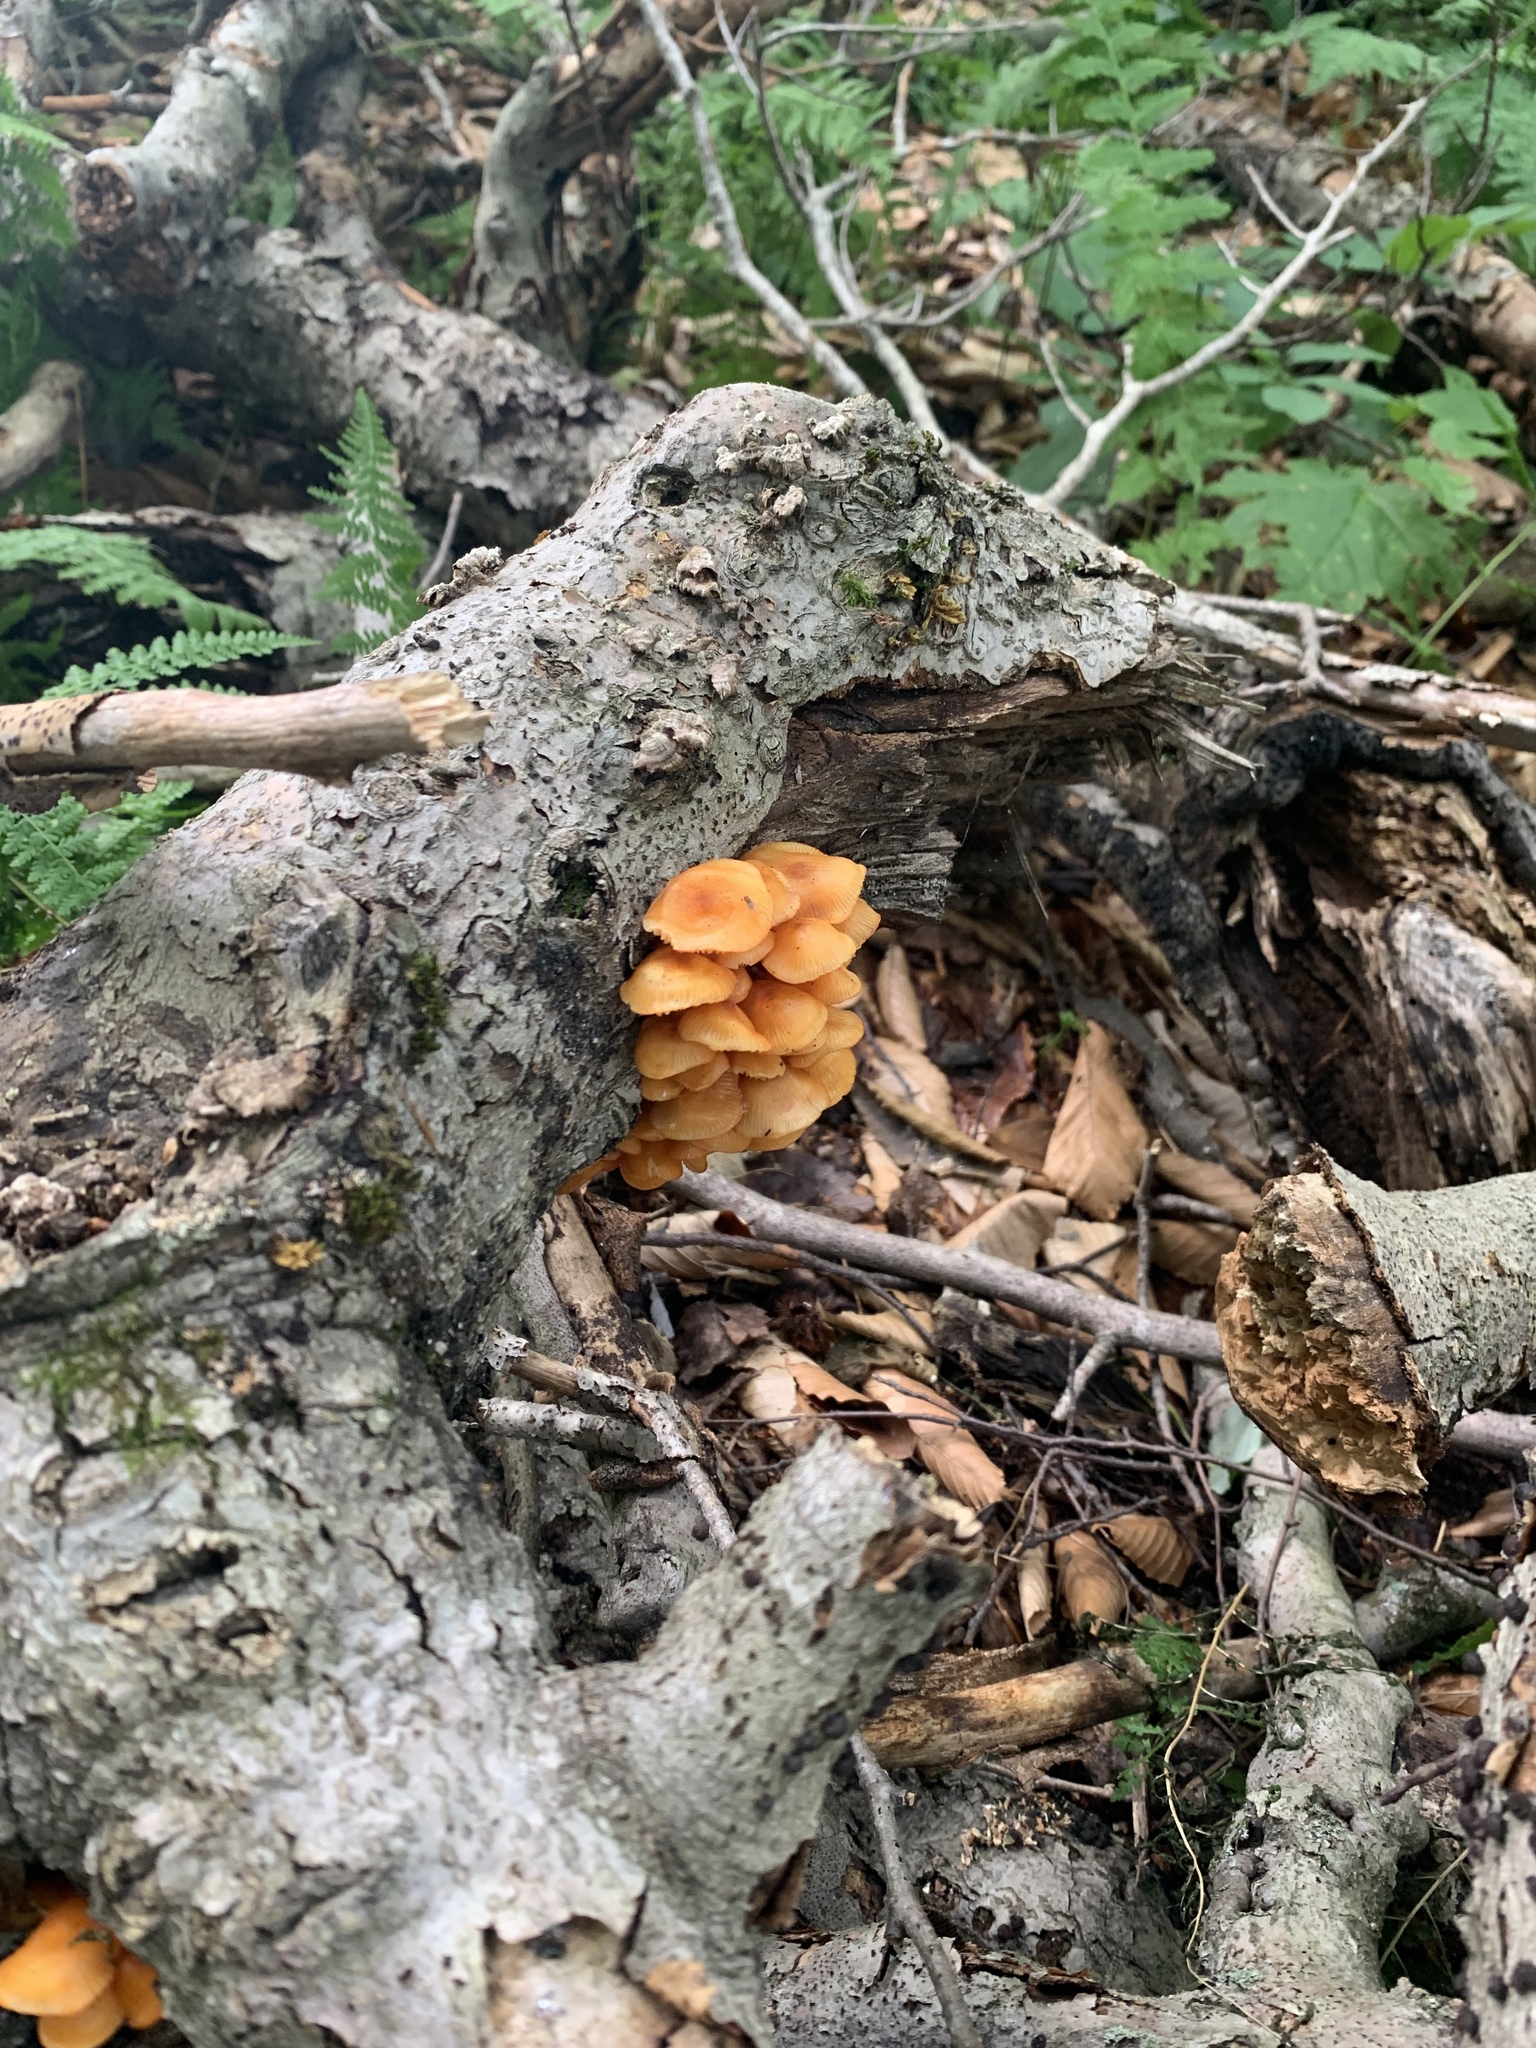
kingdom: Fungi
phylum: Basidiomycota
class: Agaricomycetes
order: Agaricales
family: Mycenaceae
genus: Mycena
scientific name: Mycena leaiana
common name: Orange mycena
